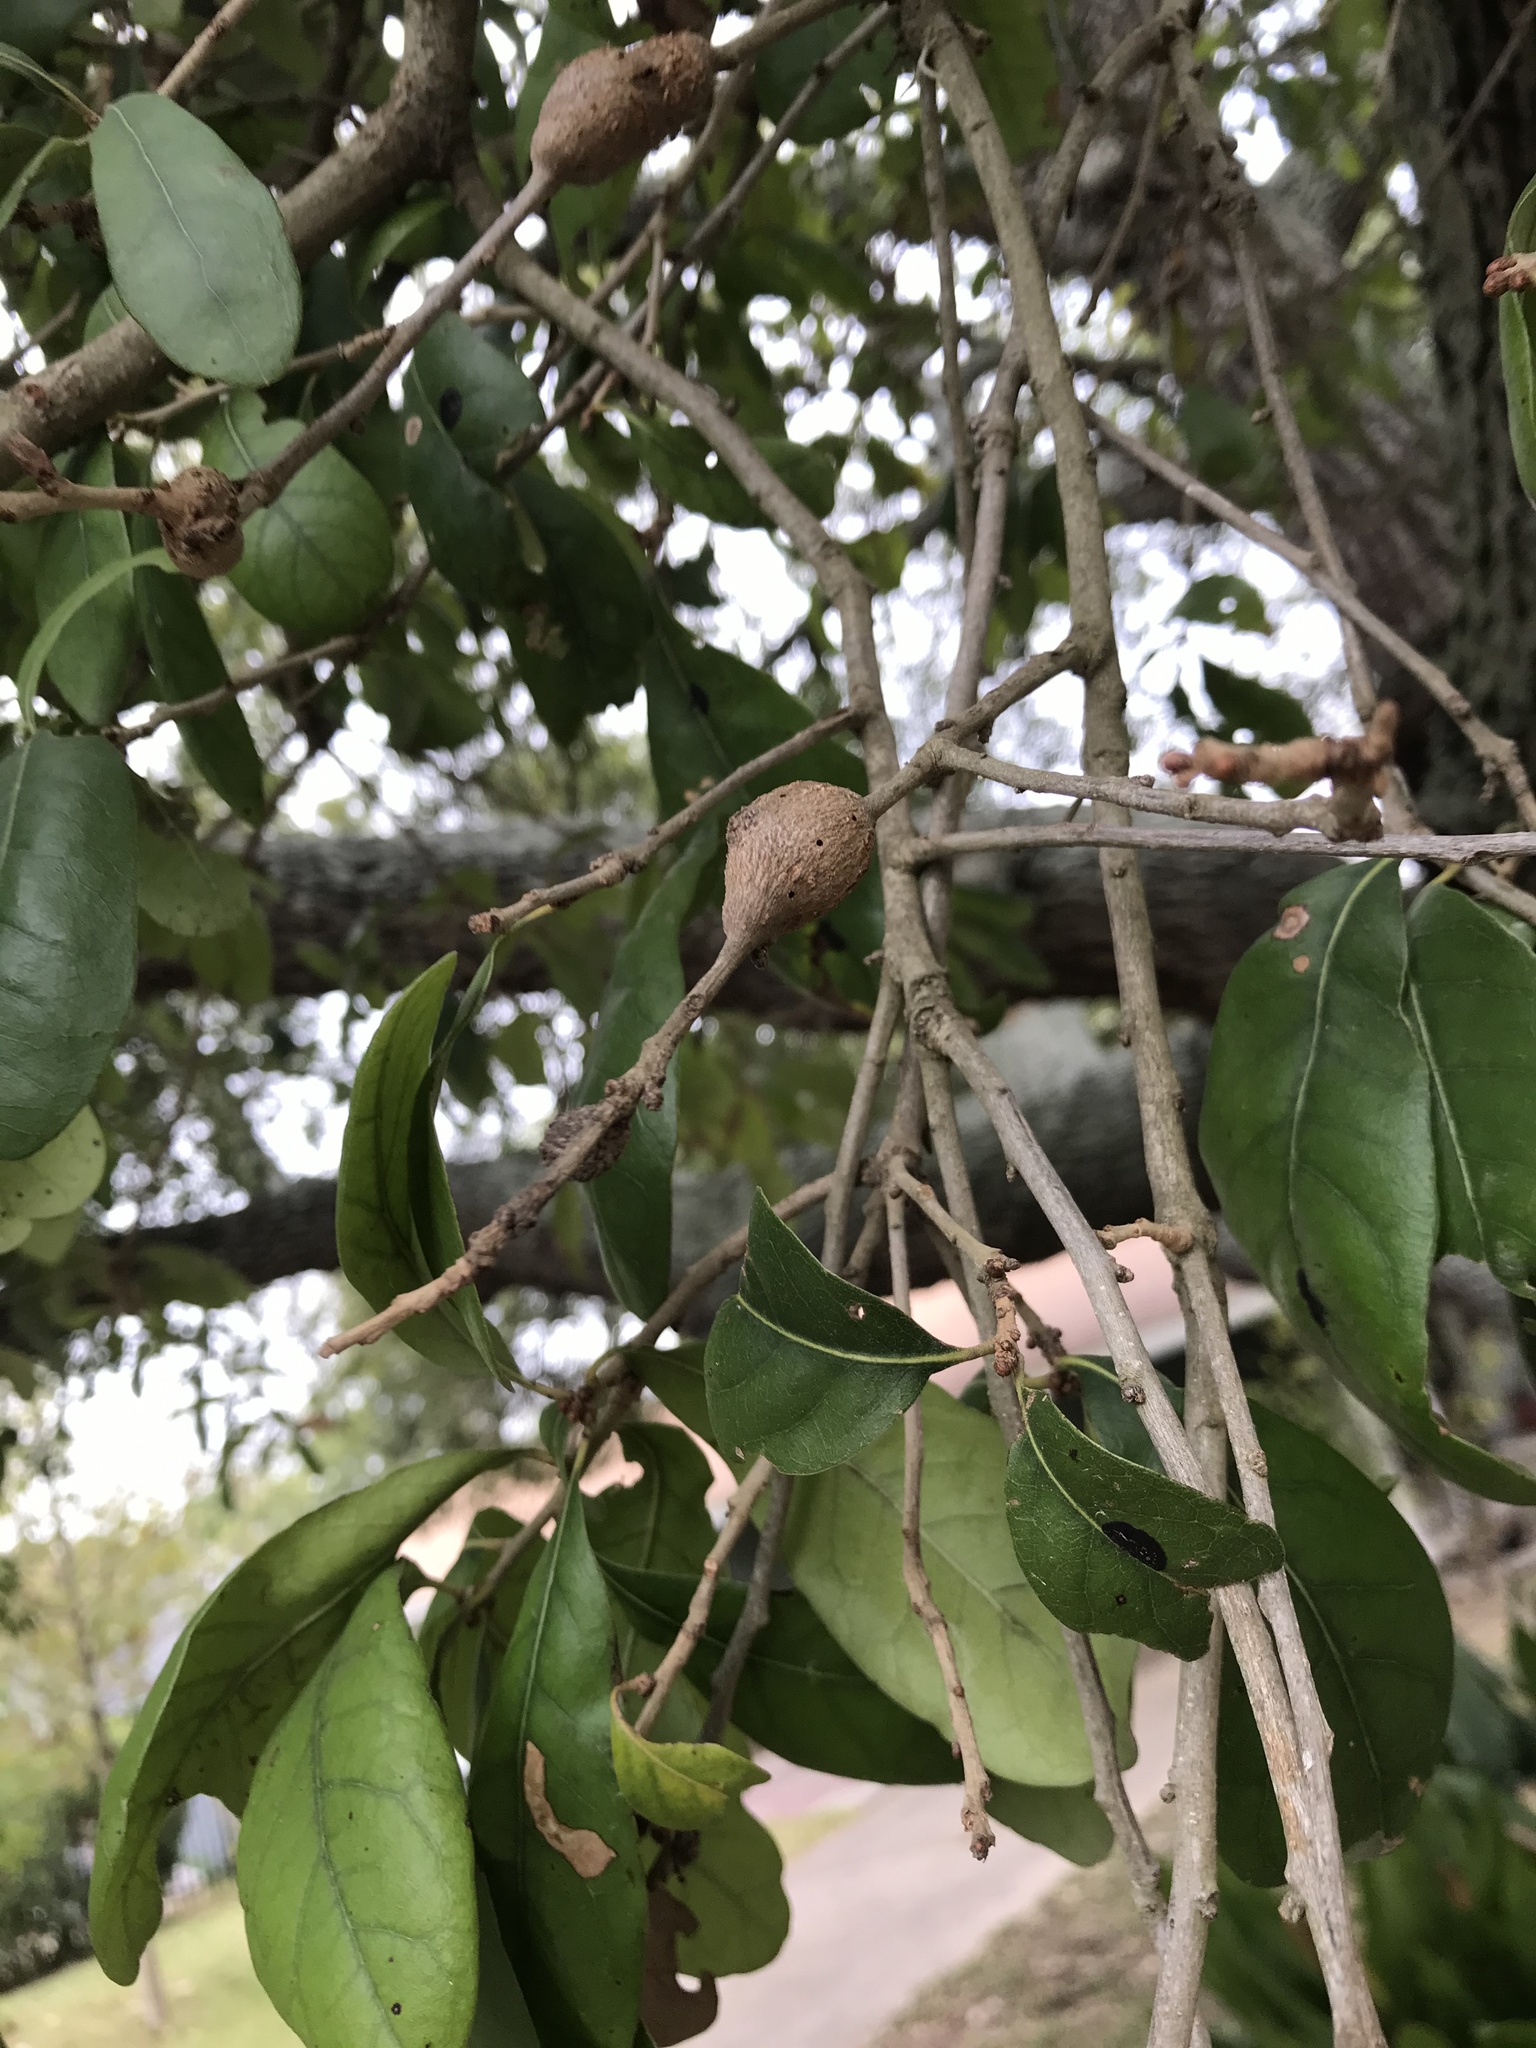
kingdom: Animalia
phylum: Arthropoda
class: Insecta
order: Hymenoptera
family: Cynipidae
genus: Callirhytis
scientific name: Callirhytis
